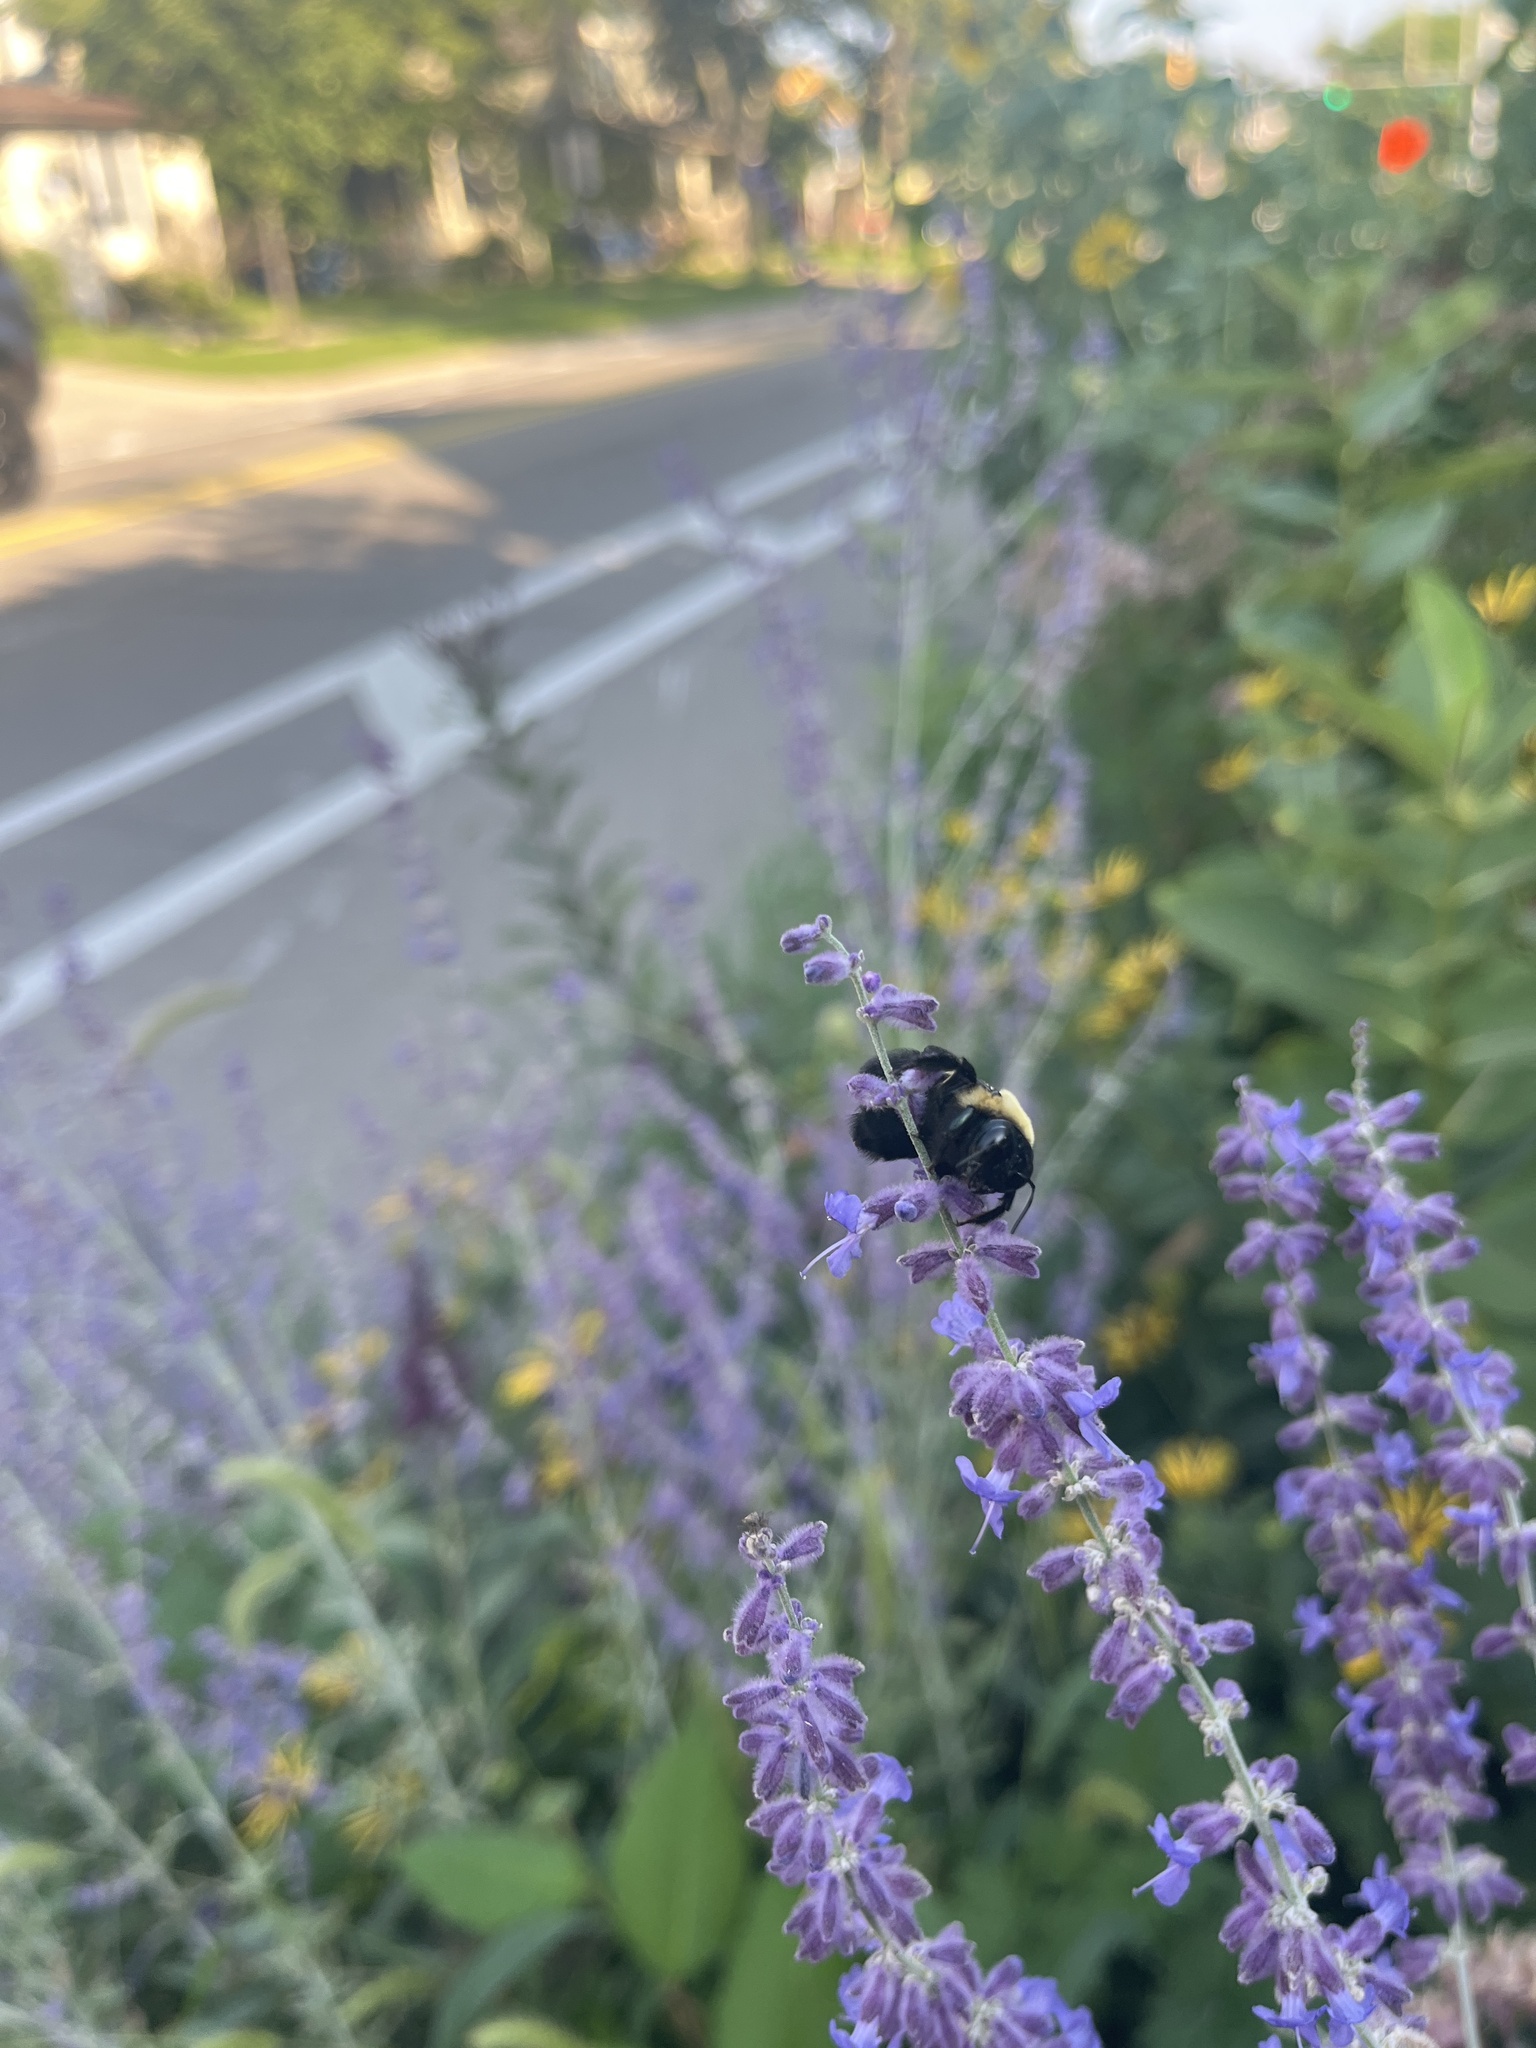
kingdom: Animalia
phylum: Arthropoda
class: Insecta
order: Hymenoptera
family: Apidae
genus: Xylocopa
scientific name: Xylocopa virginica
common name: Carpenter bee
